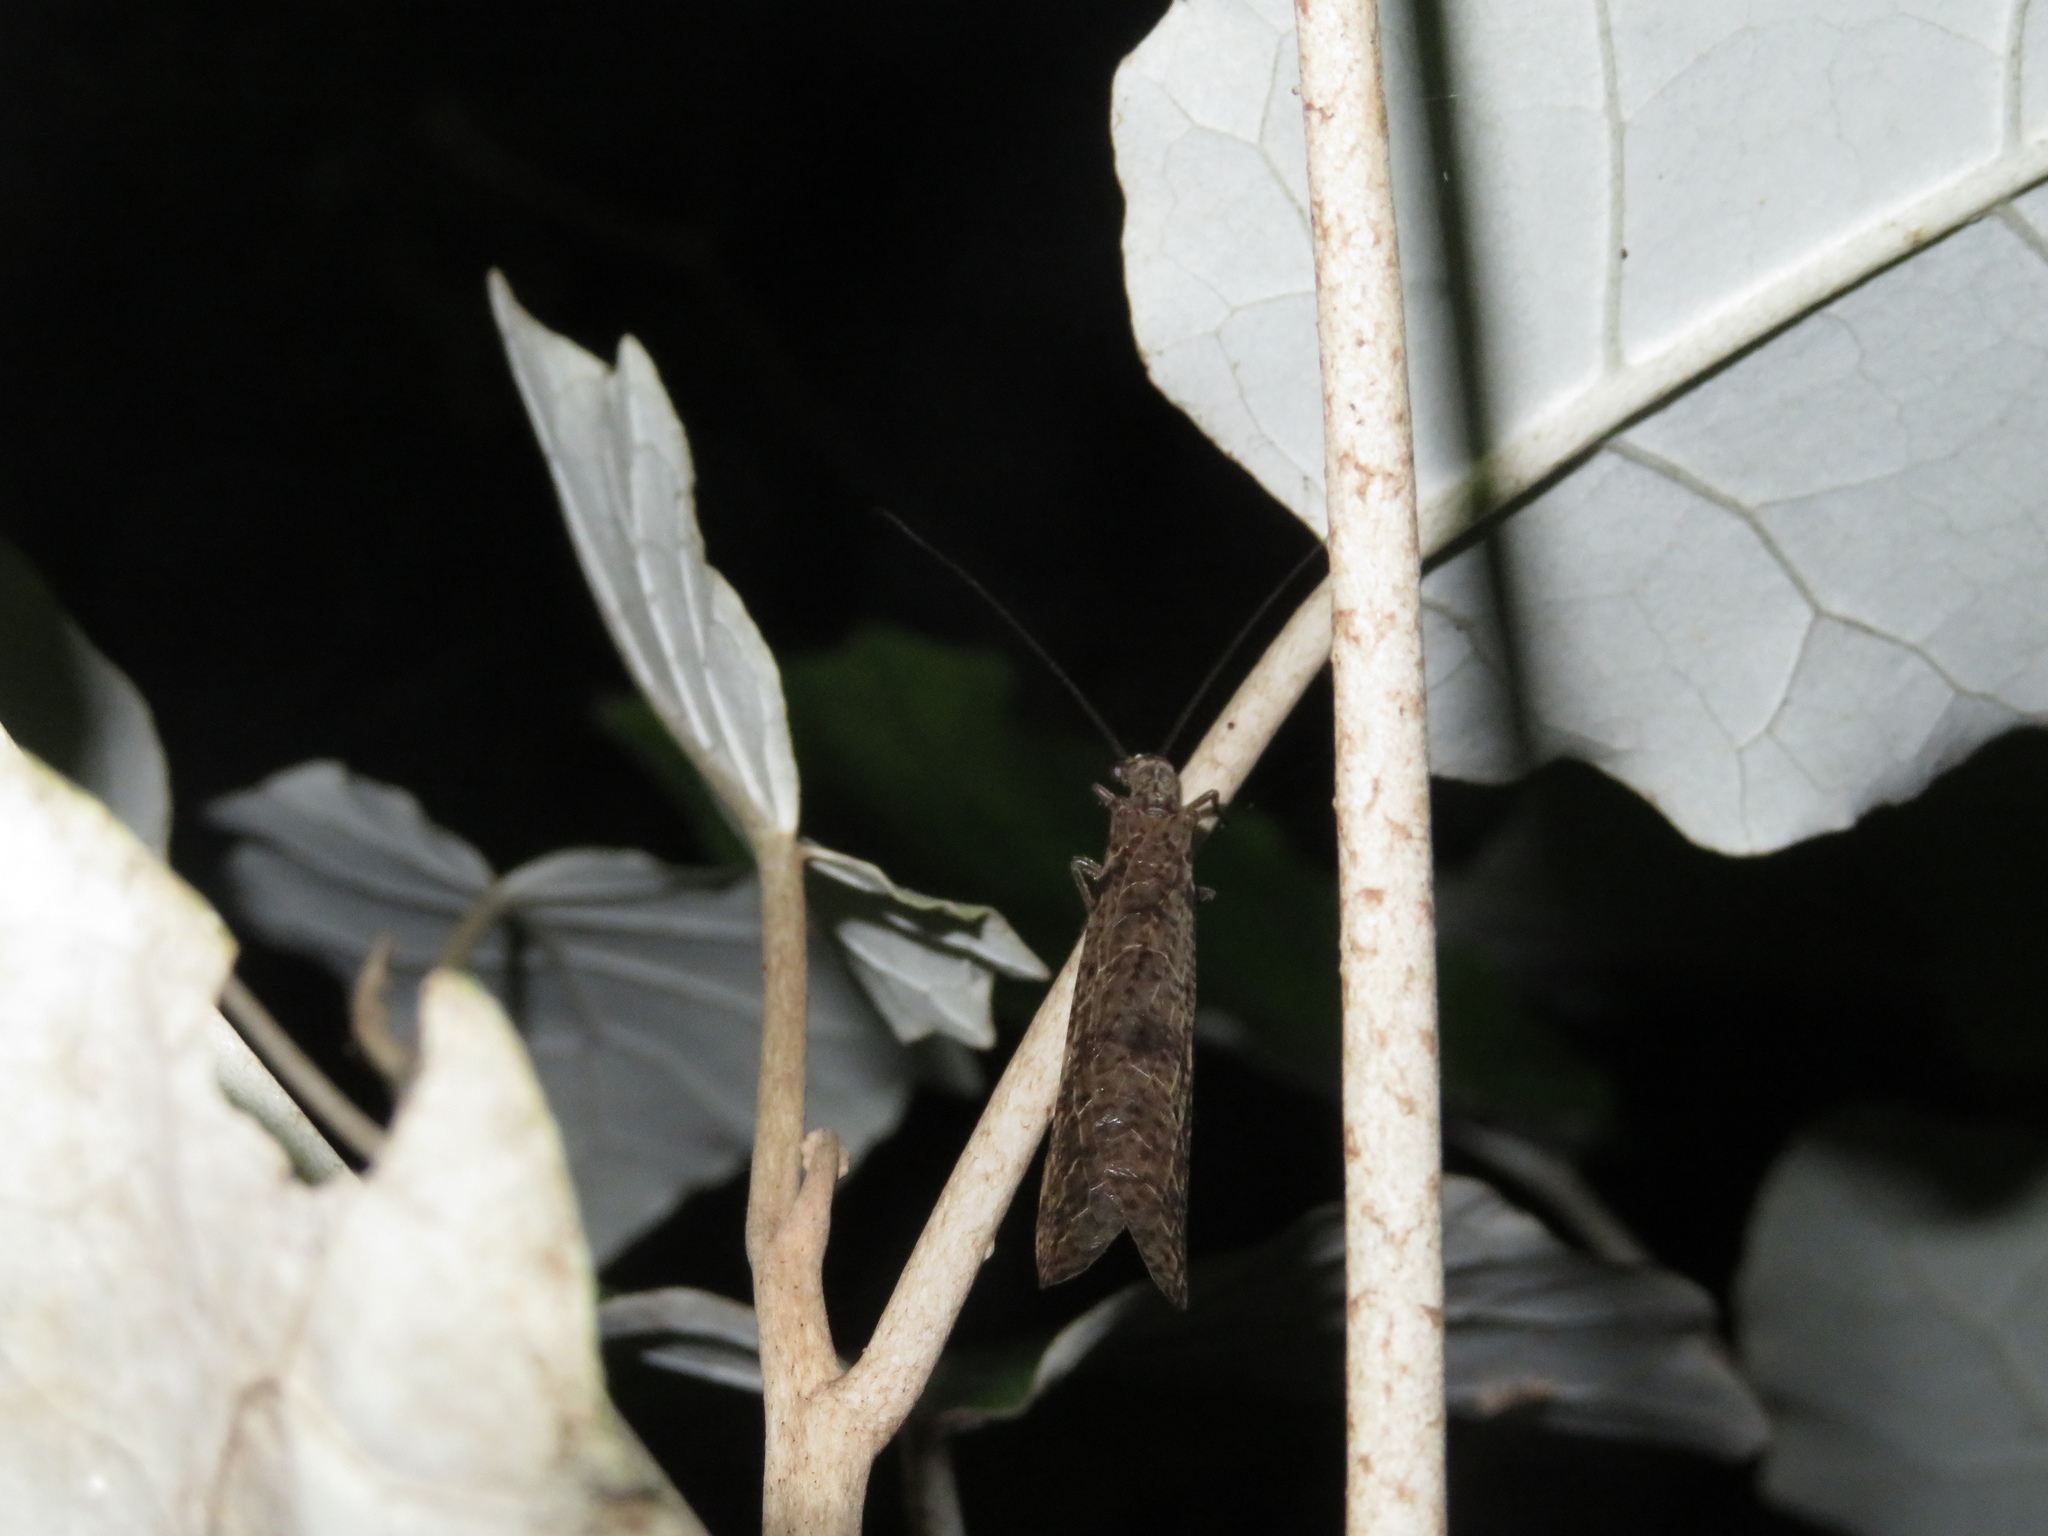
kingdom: Animalia
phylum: Arthropoda
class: Insecta
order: Megaloptera
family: Corydalidae
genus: Archichauliodes
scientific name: Archichauliodes diversus
